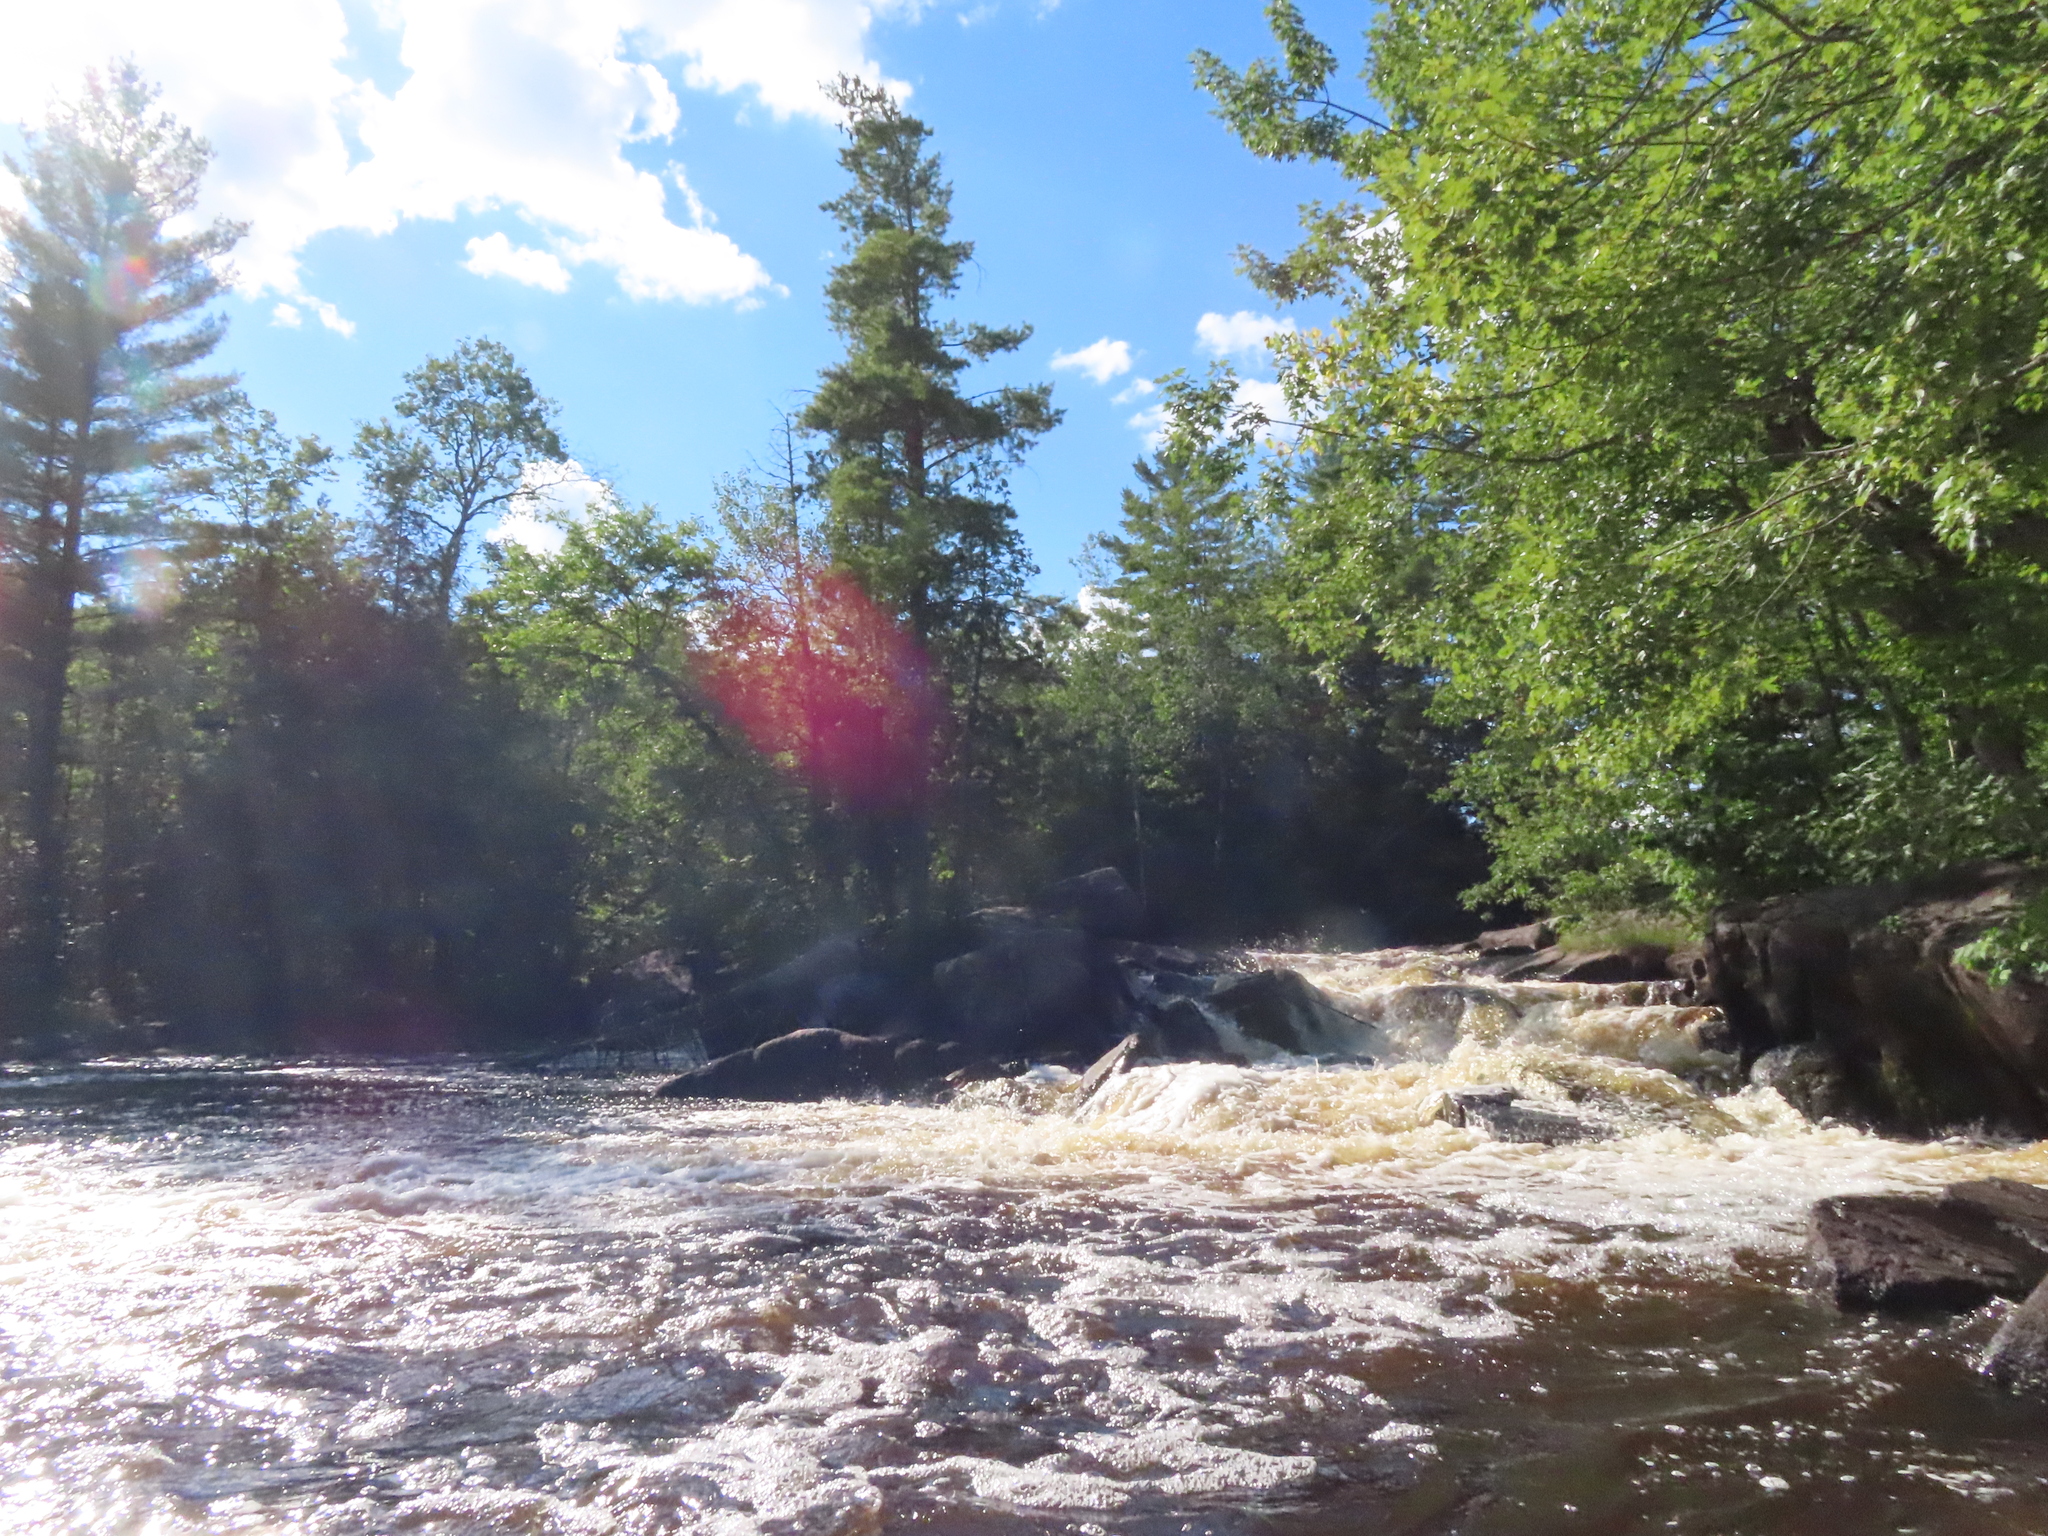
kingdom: Plantae
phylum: Tracheophyta
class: Pinopsida
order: Pinales
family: Pinaceae
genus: Pinus
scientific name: Pinus strobus
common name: Weymouth pine
